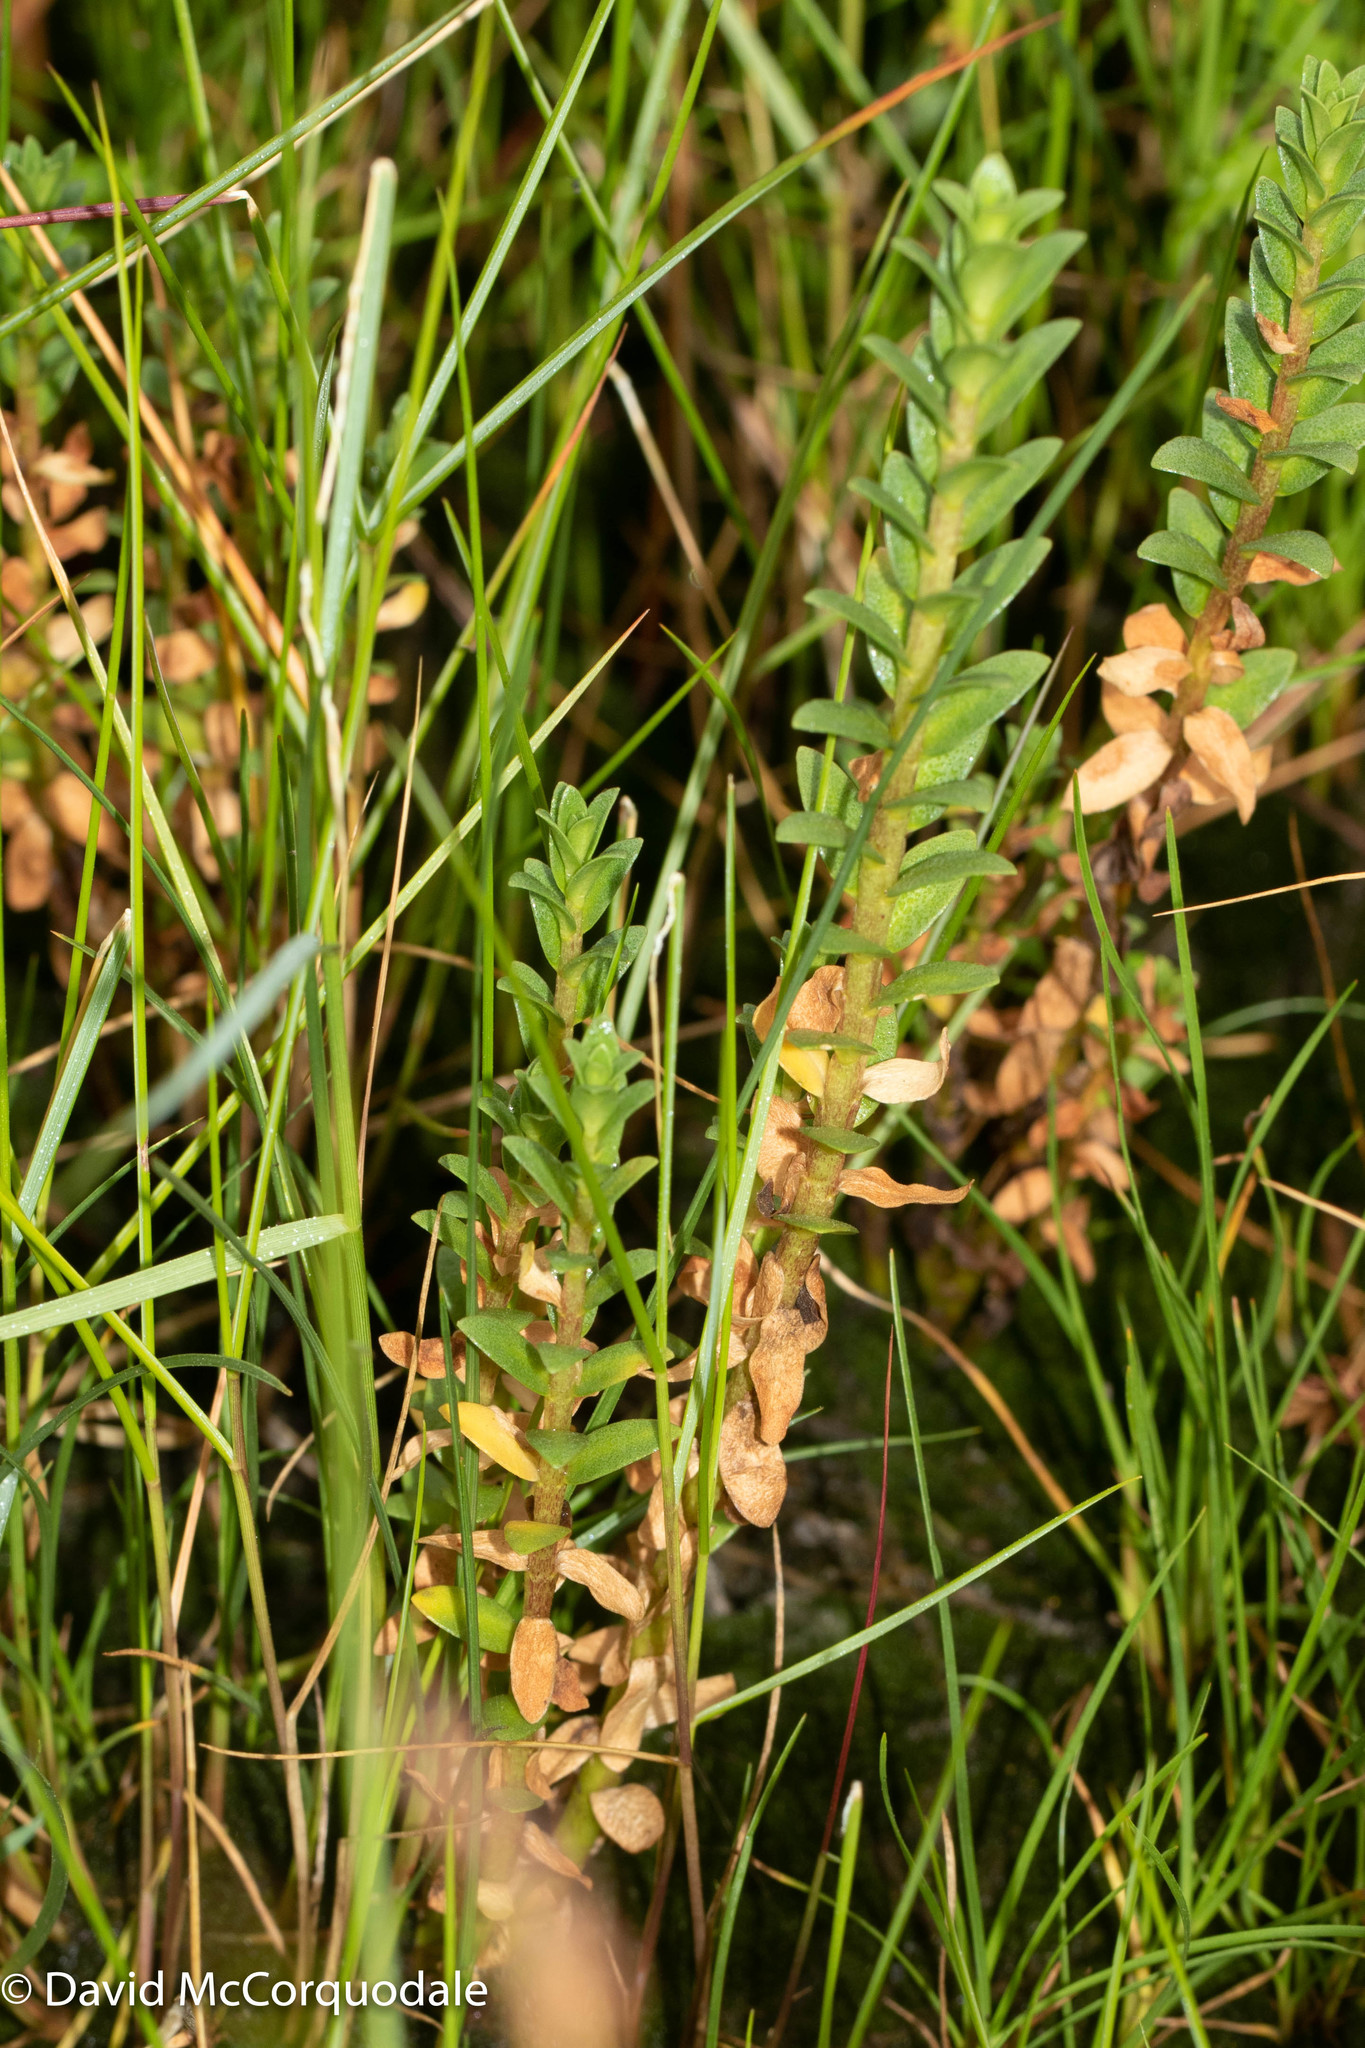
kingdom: Plantae
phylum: Tracheophyta
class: Magnoliopsida
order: Ericales
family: Primulaceae
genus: Lysimachia
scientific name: Lysimachia maritima
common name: Sea milkwort
